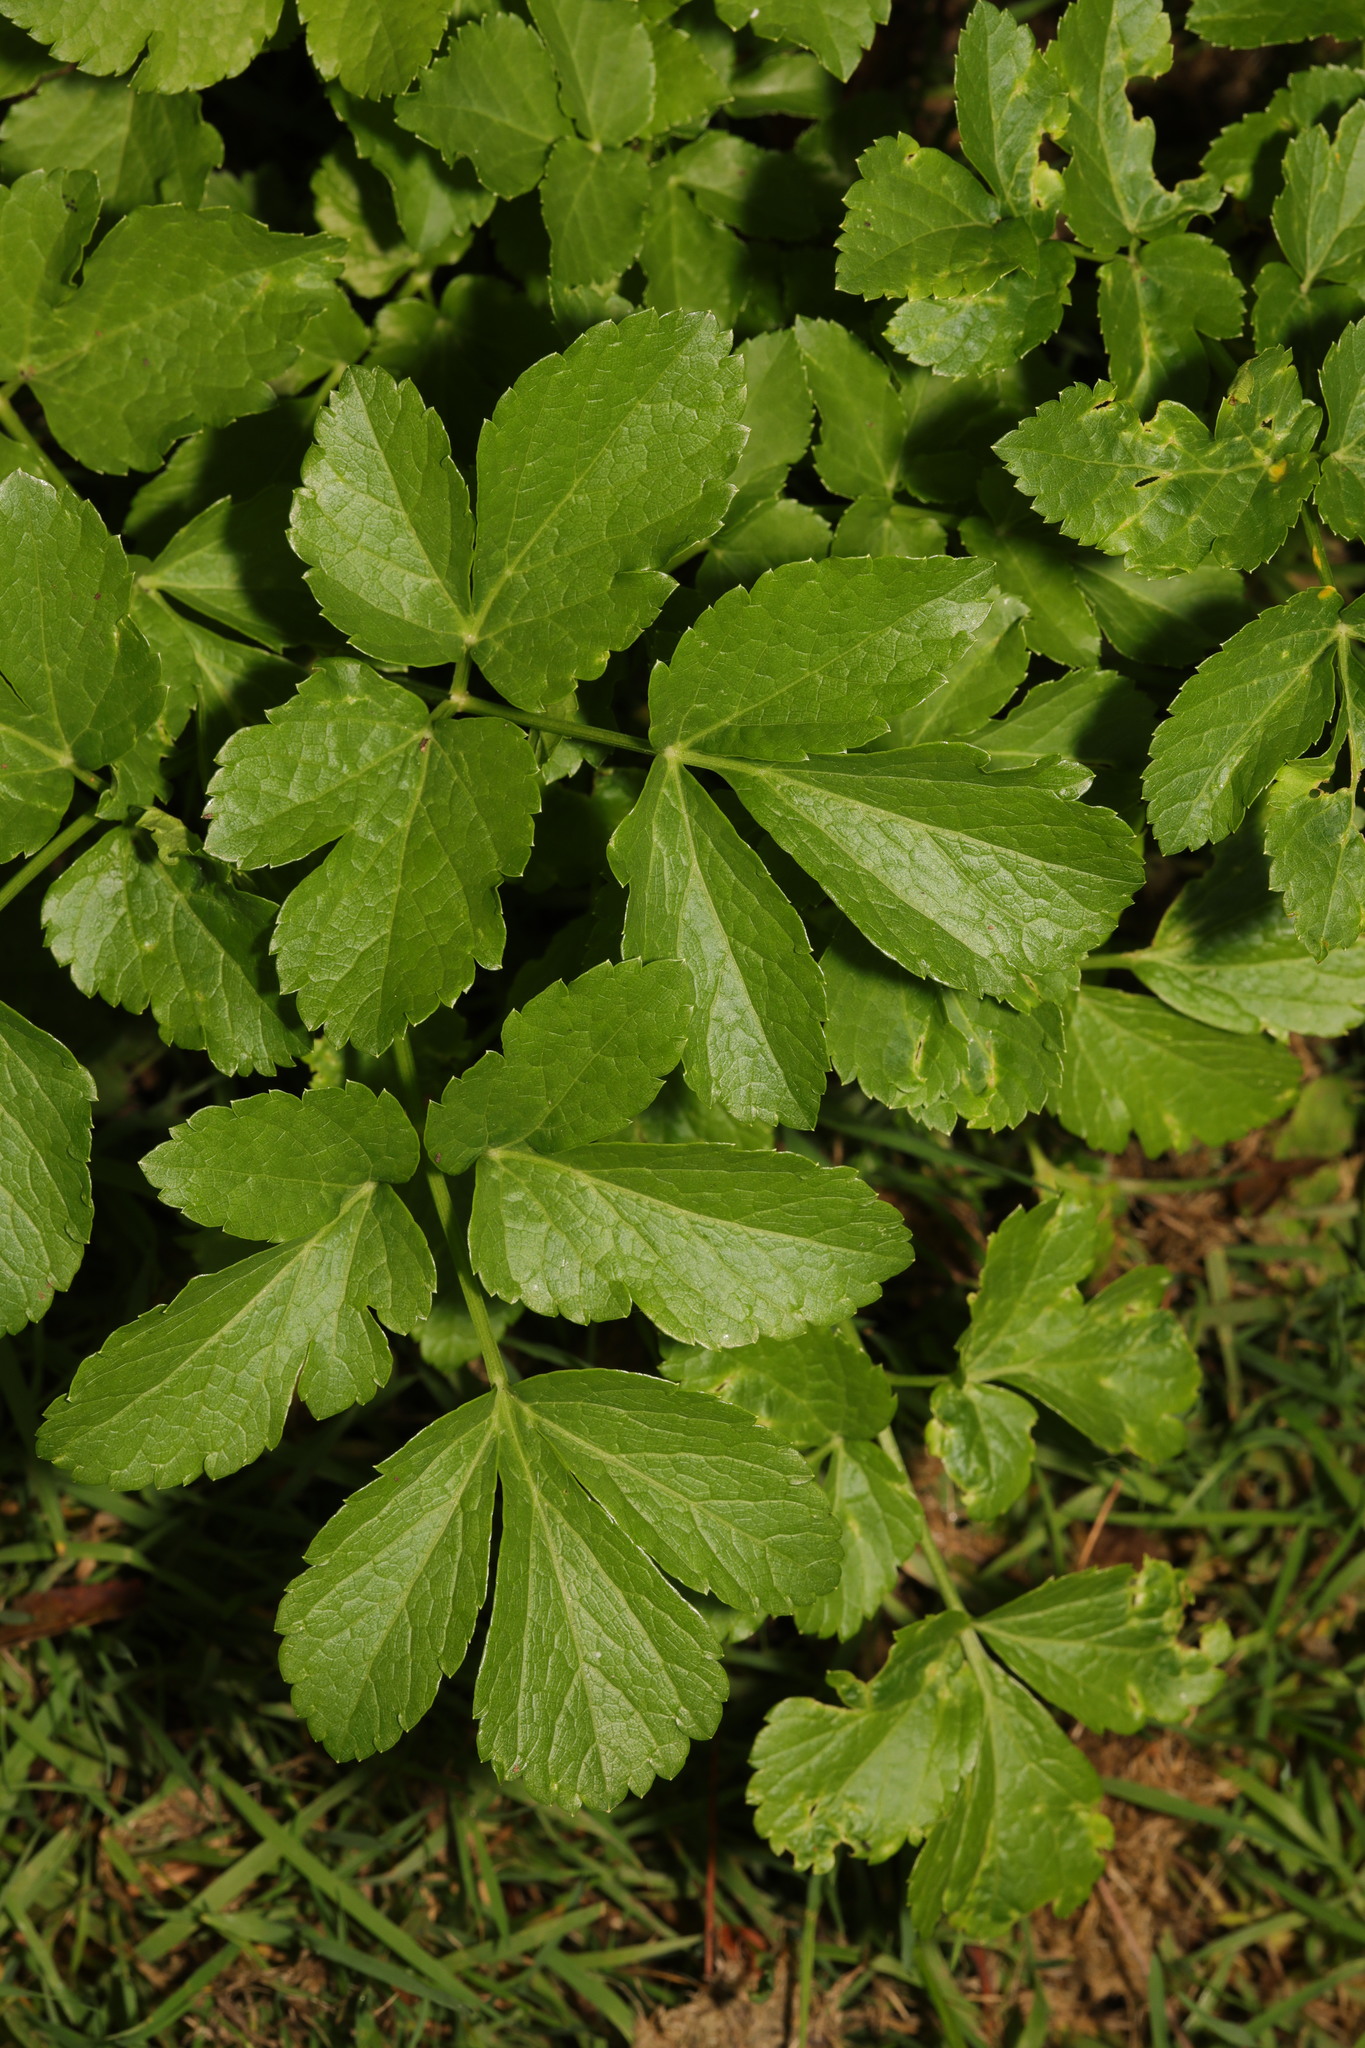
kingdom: Plantae
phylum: Tracheophyta
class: Magnoliopsida
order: Apiales
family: Apiaceae
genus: Smyrnium
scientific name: Smyrnium olusatrum
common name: Alexanders
